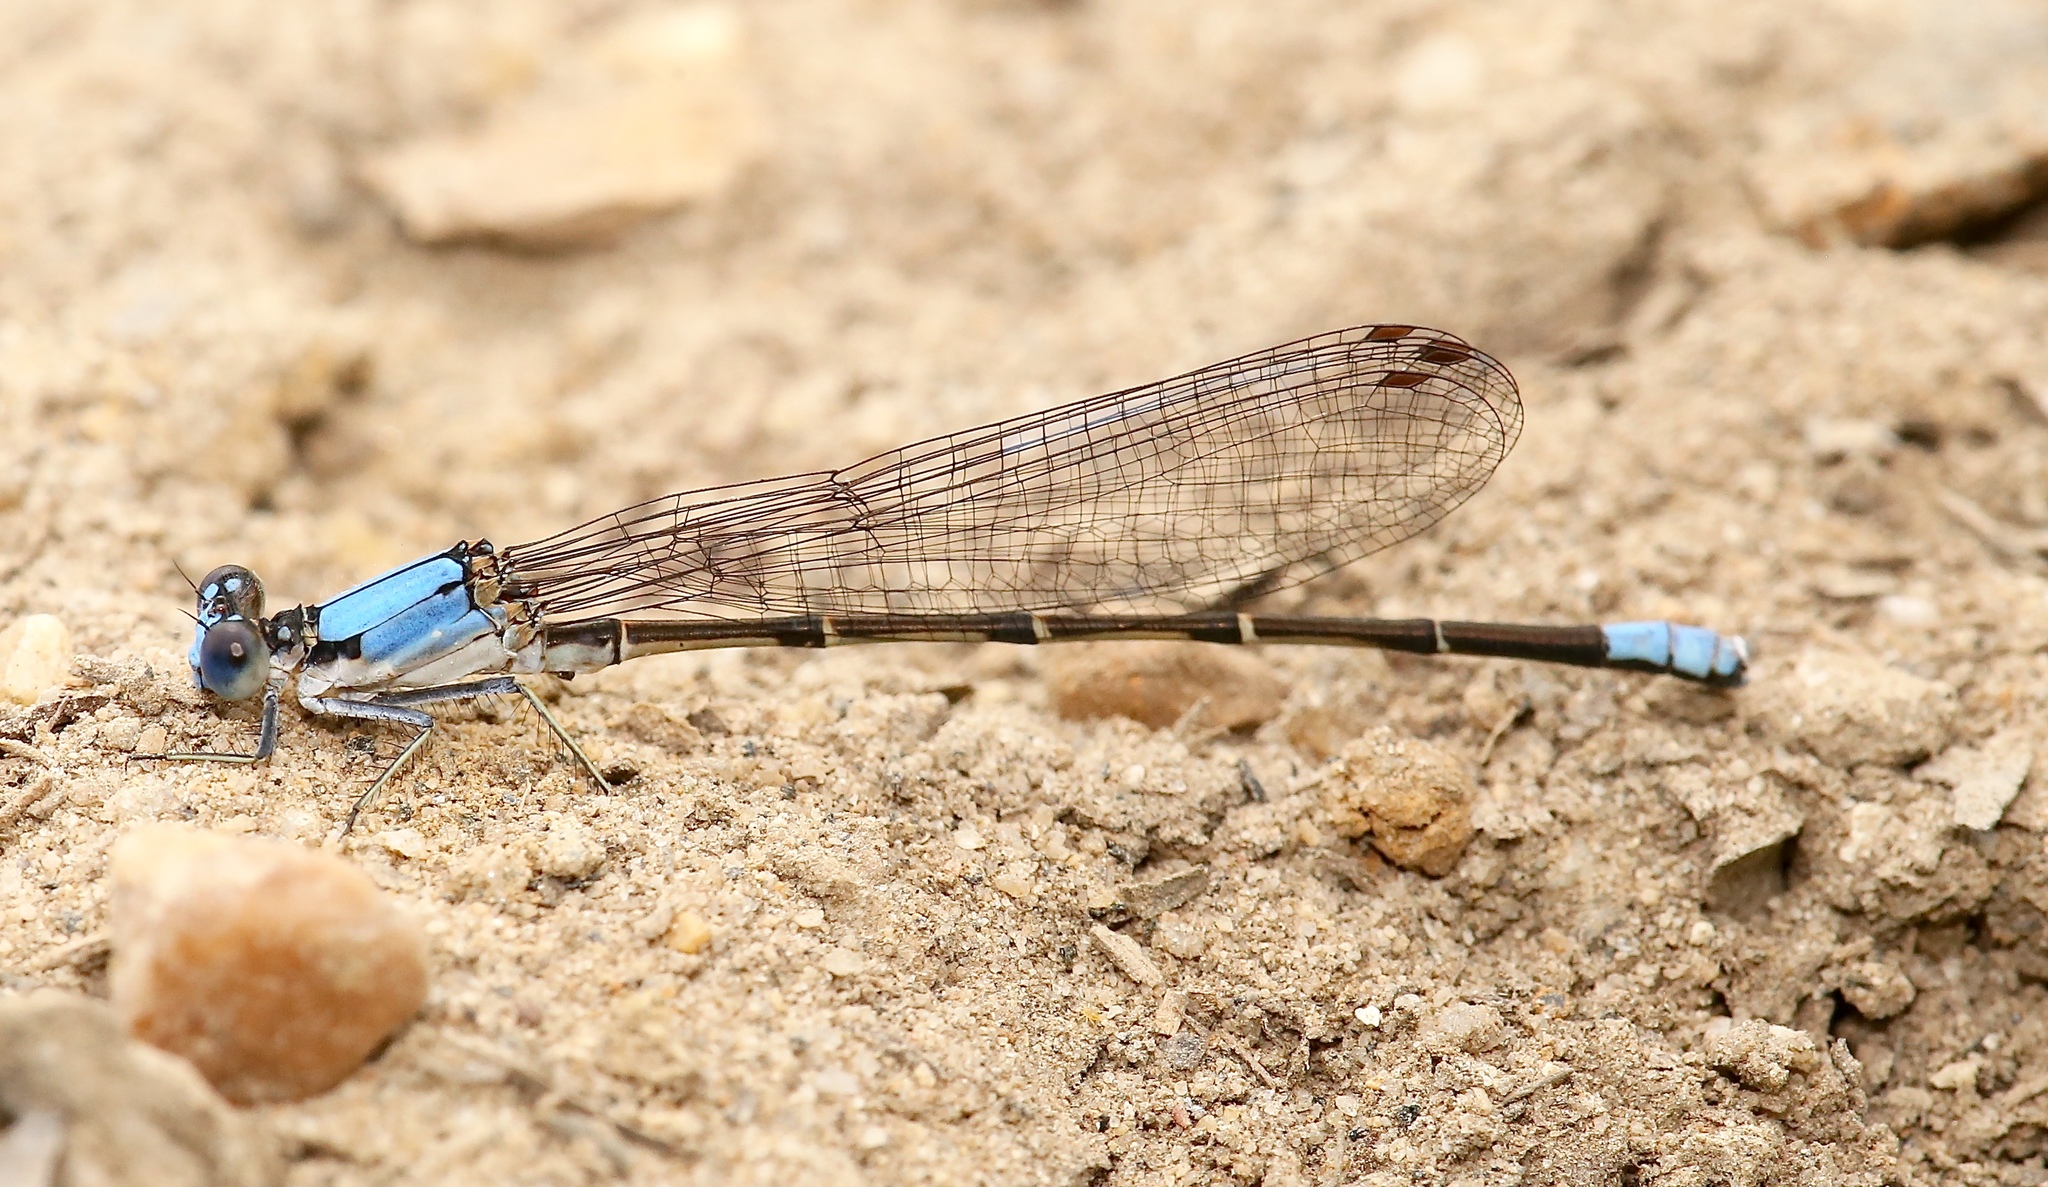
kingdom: Animalia
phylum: Arthropoda
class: Insecta
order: Odonata
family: Coenagrionidae
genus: Argia
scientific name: Argia apicalis
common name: Blue-fronted dancer
